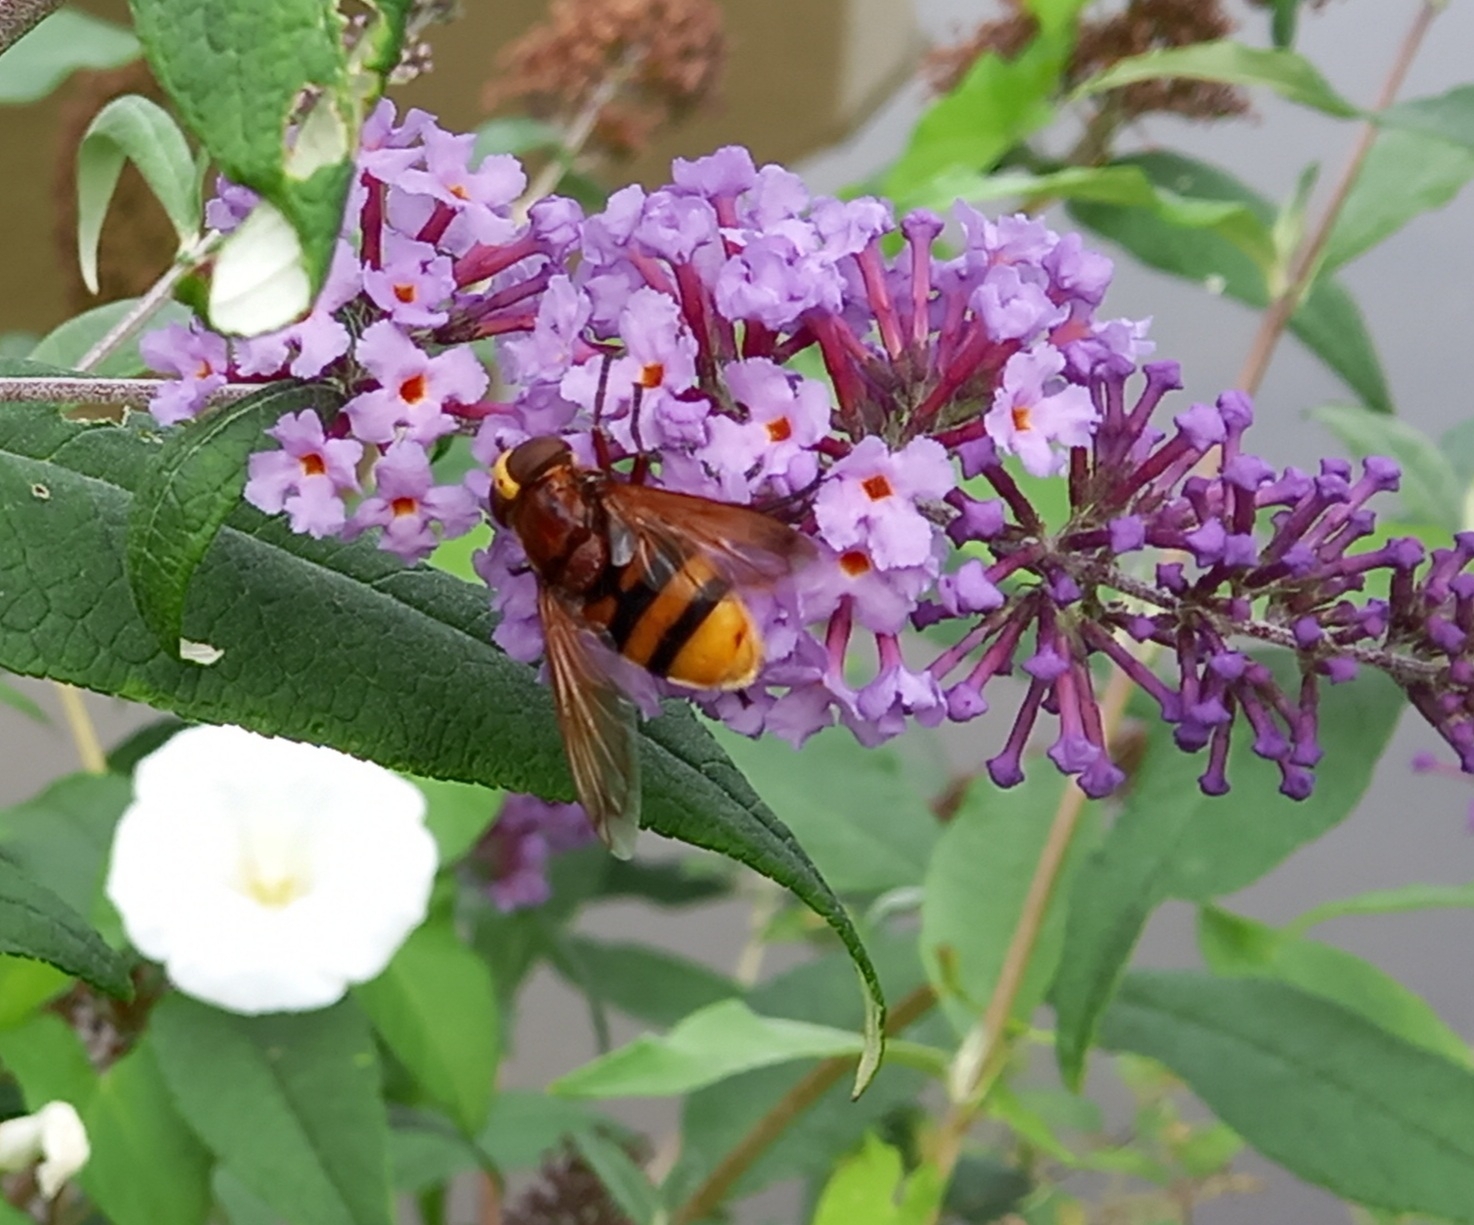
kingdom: Animalia
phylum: Arthropoda
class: Insecta
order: Diptera
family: Syrphidae
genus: Volucella
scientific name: Volucella zonaria
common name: Hornet hoverfly
